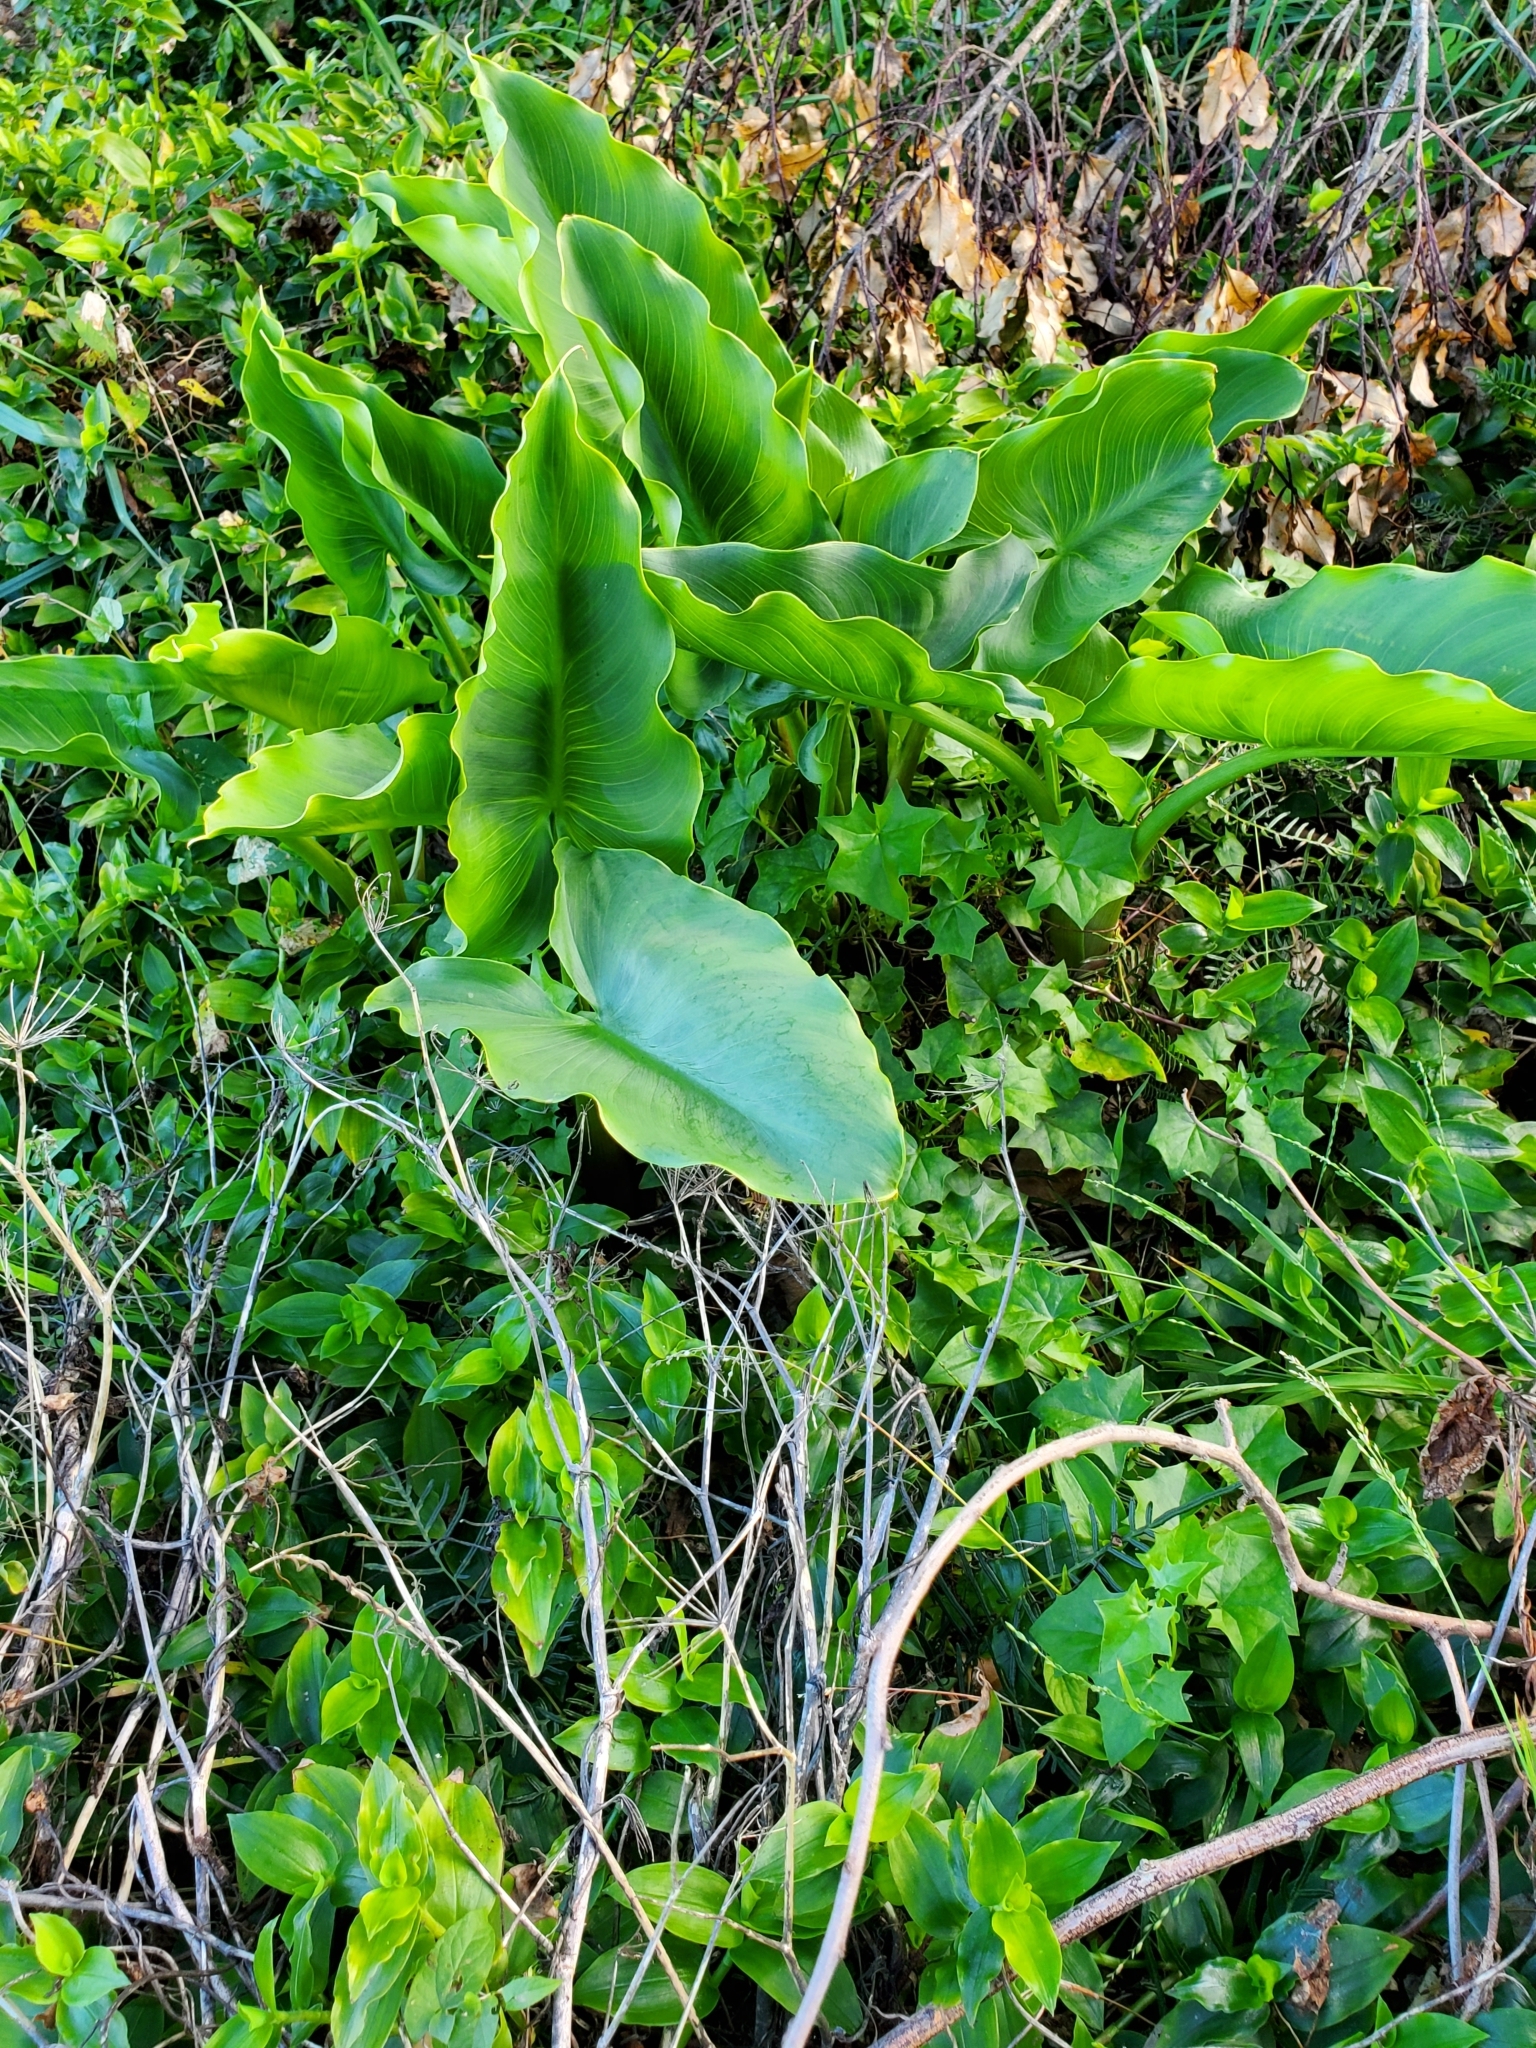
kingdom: Plantae
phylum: Tracheophyta
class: Liliopsida
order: Alismatales
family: Araceae
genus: Zantedeschia
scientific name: Zantedeschia aethiopica
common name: Altar-lily
